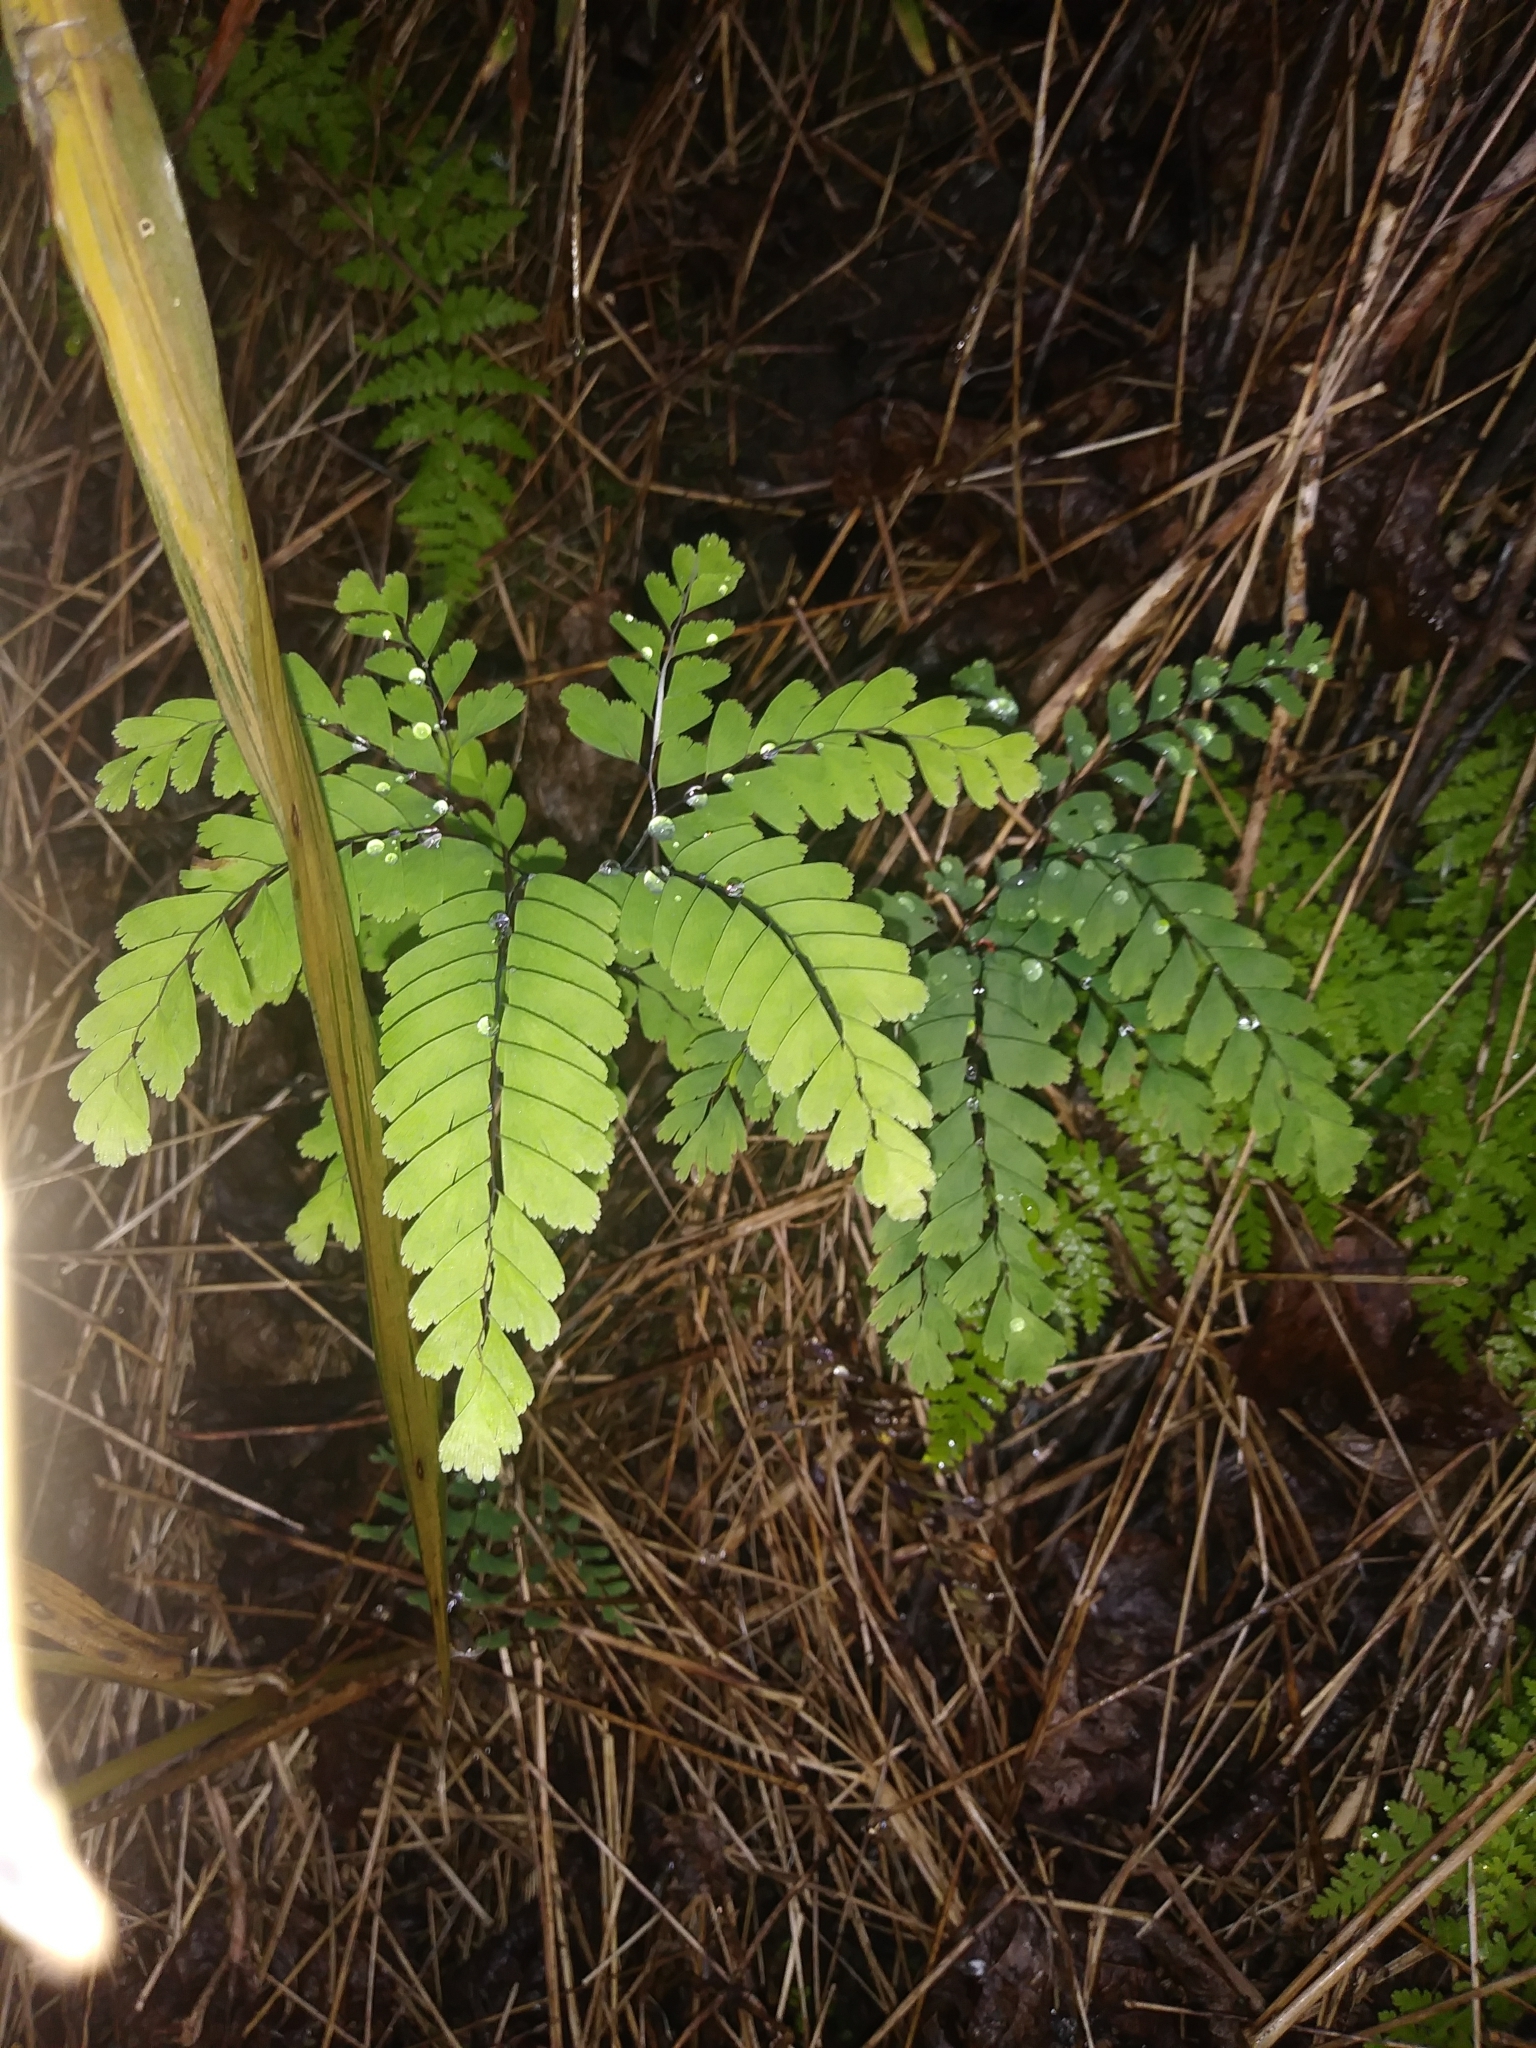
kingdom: Plantae
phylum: Tracheophyta
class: Polypodiopsida
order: Polypodiales
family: Pteridaceae
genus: Adiantum
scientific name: Adiantum pedatum
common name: Five-finger fern
